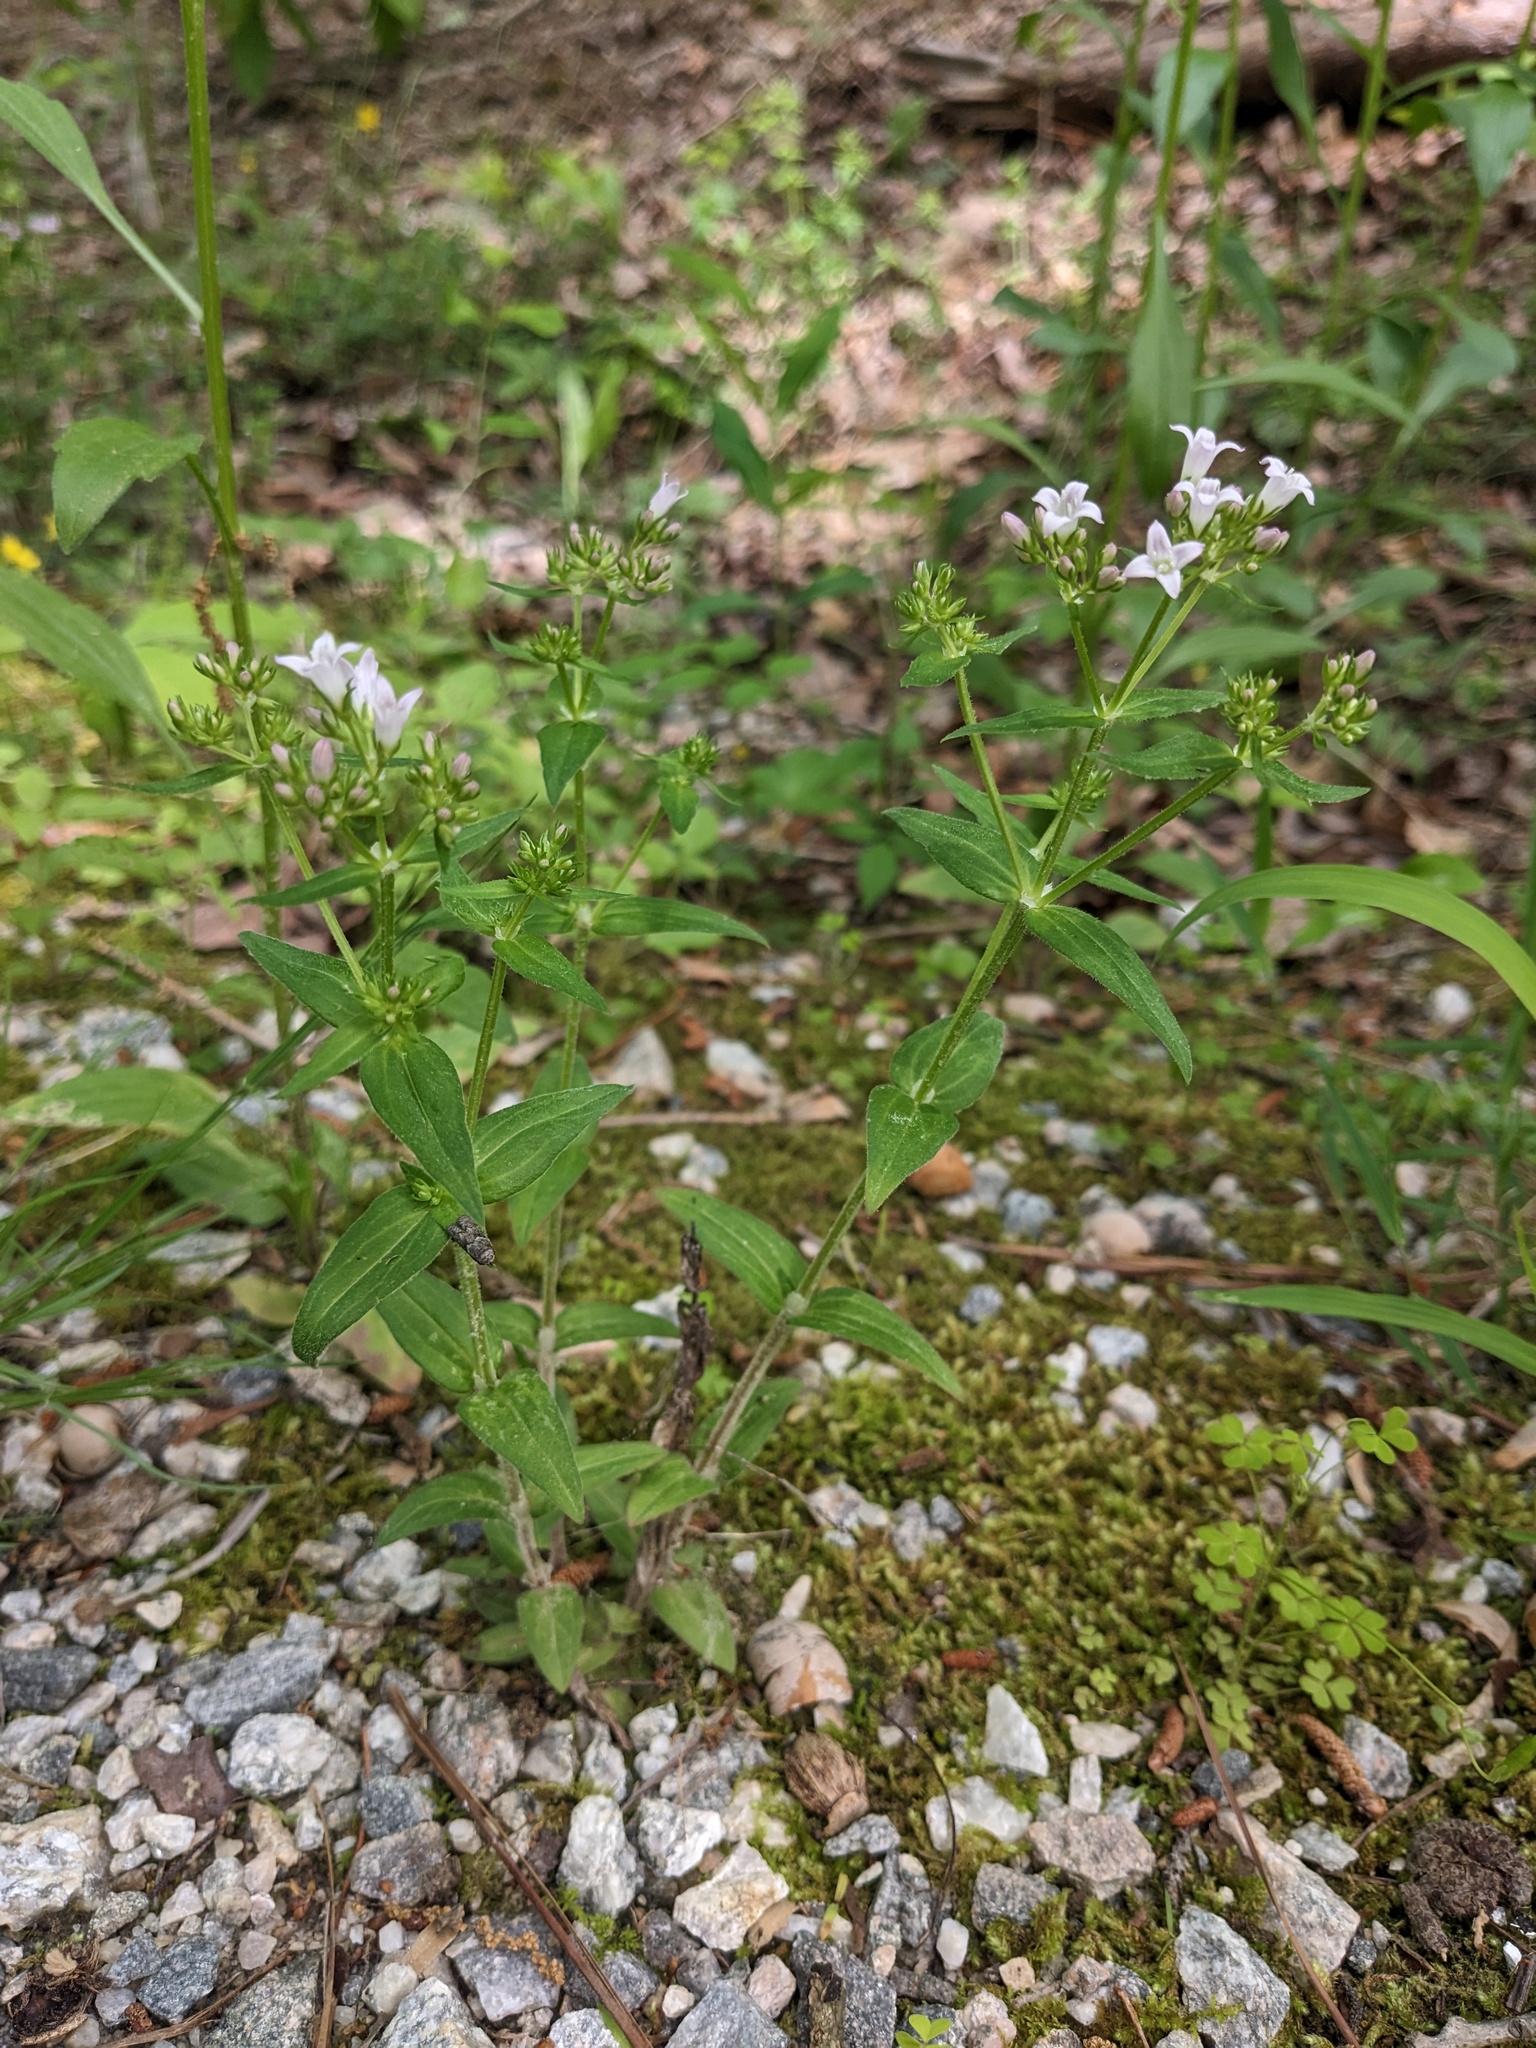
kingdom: Plantae
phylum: Tracheophyta
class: Magnoliopsida
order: Gentianales
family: Rubiaceae
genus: Houstonia
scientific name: Houstonia purpurea
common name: Summer bluet
